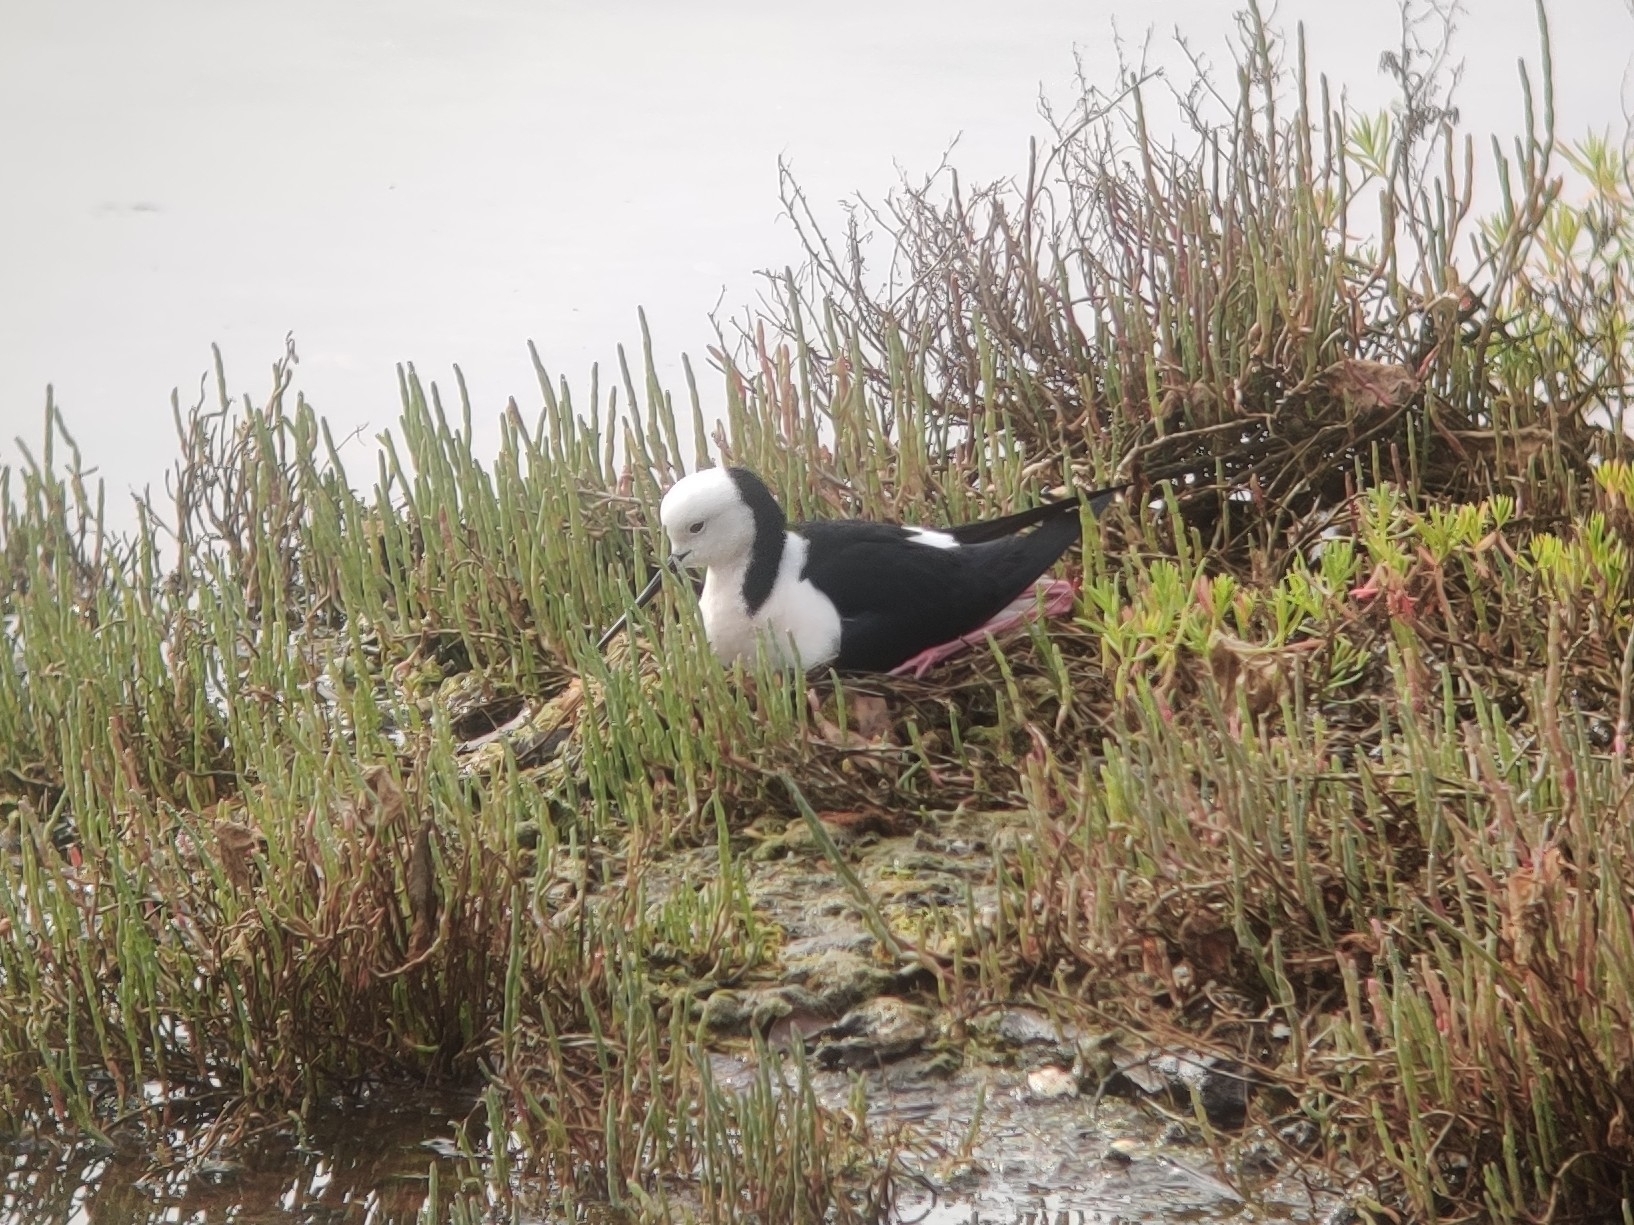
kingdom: Animalia
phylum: Chordata
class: Aves
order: Charadriiformes
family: Recurvirostridae
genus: Himantopus
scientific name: Himantopus leucocephalus
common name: White-headed stilt
